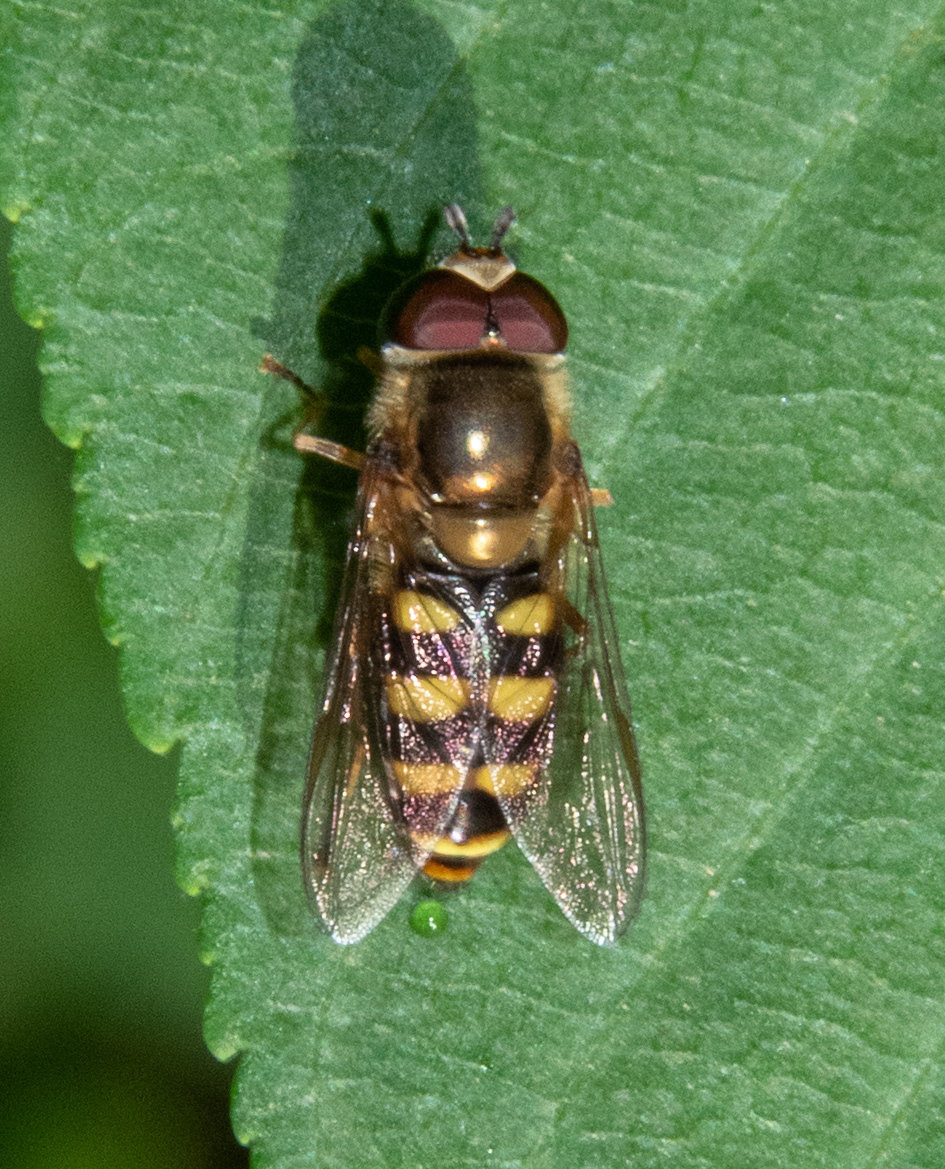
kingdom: Animalia
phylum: Arthropoda
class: Insecta
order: Diptera
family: Syrphidae
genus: Eupeodes
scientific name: Eupeodes fumipennis
